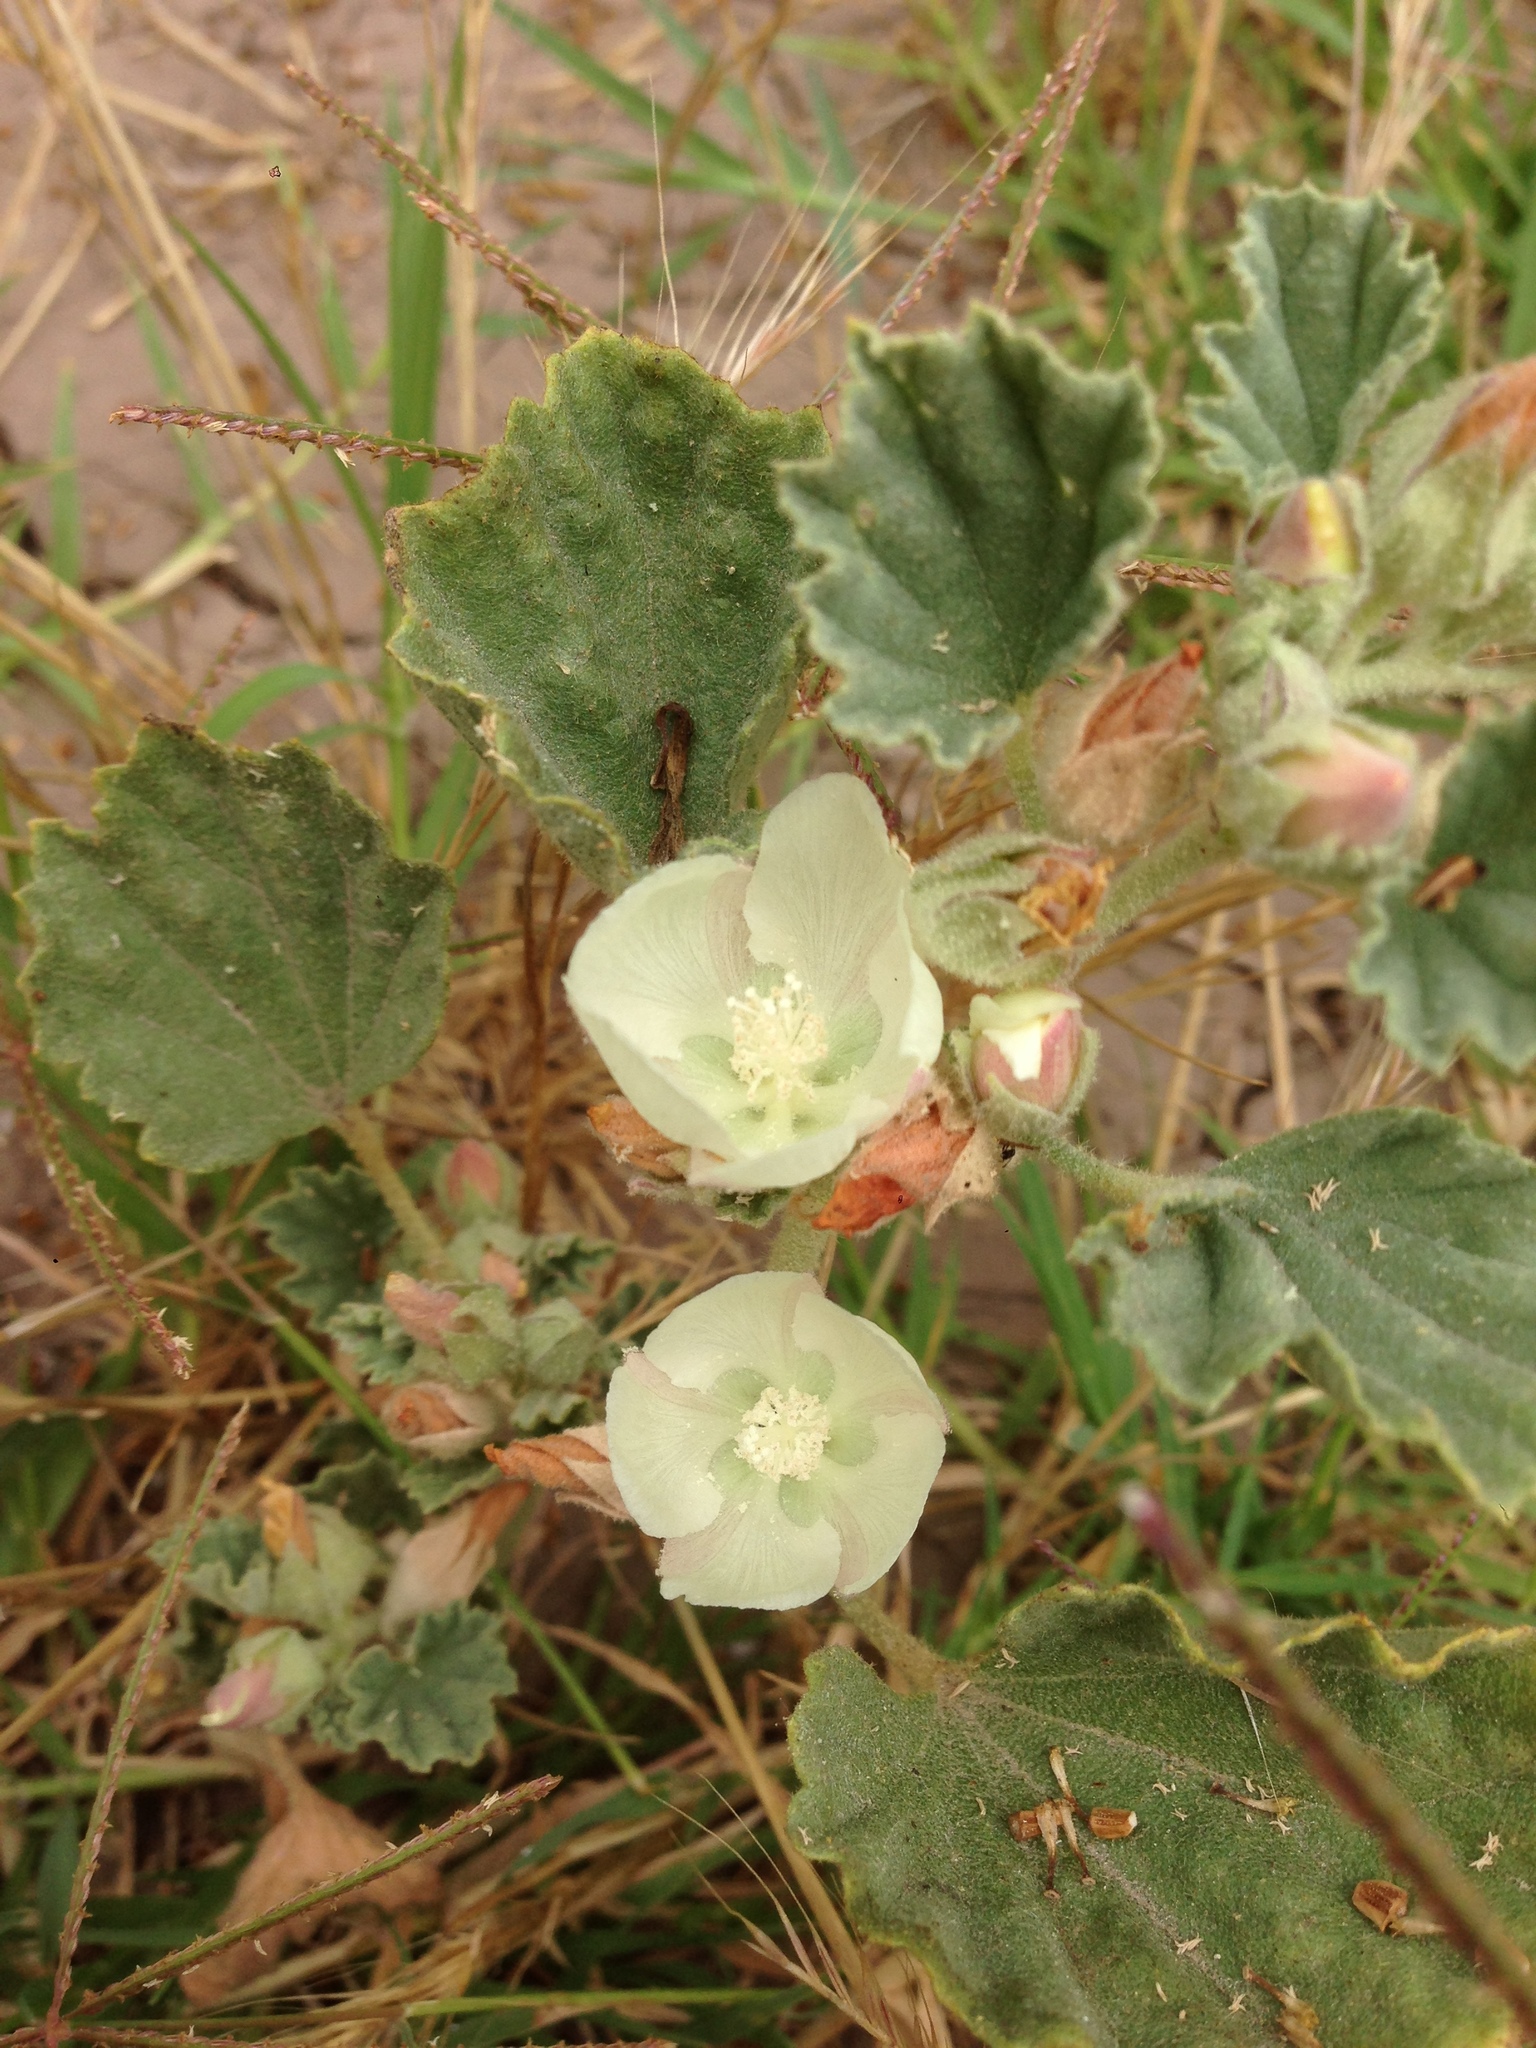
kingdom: Plantae
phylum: Tracheophyta
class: Magnoliopsida
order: Malvales
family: Malvaceae
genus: Malvella
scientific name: Malvella leprosa
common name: Alkali-mallow
